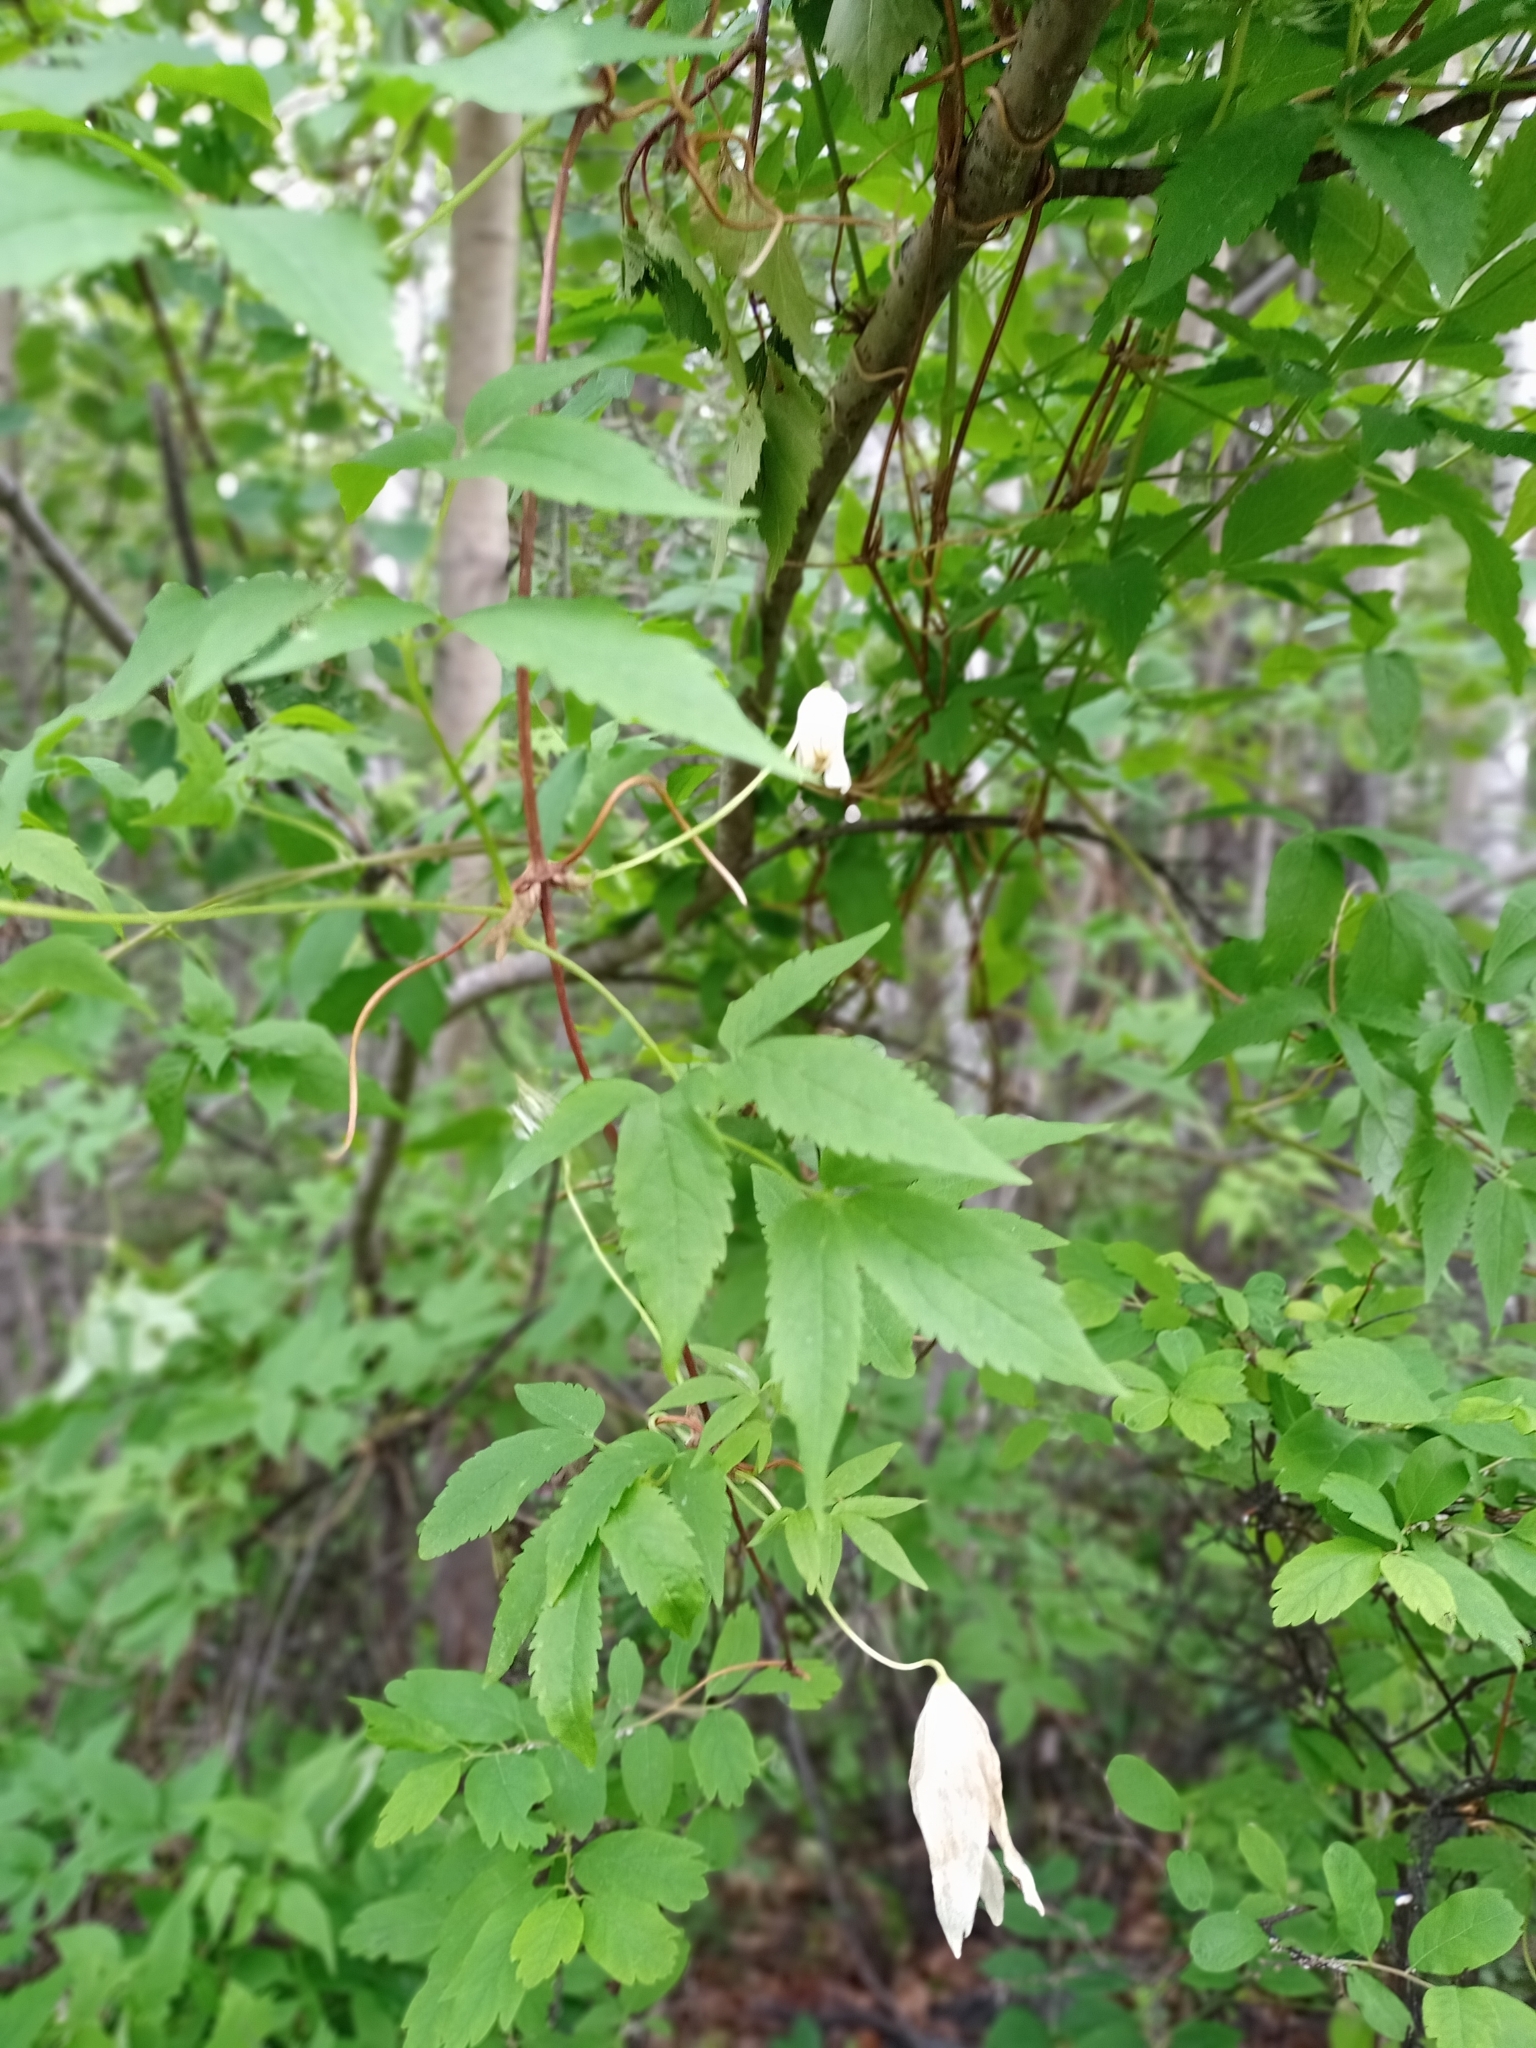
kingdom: Plantae
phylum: Tracheophyta
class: Magnoliopsida
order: Ranunculales
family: Ranunculaceae
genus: Clematis
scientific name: Clematis sibirica
